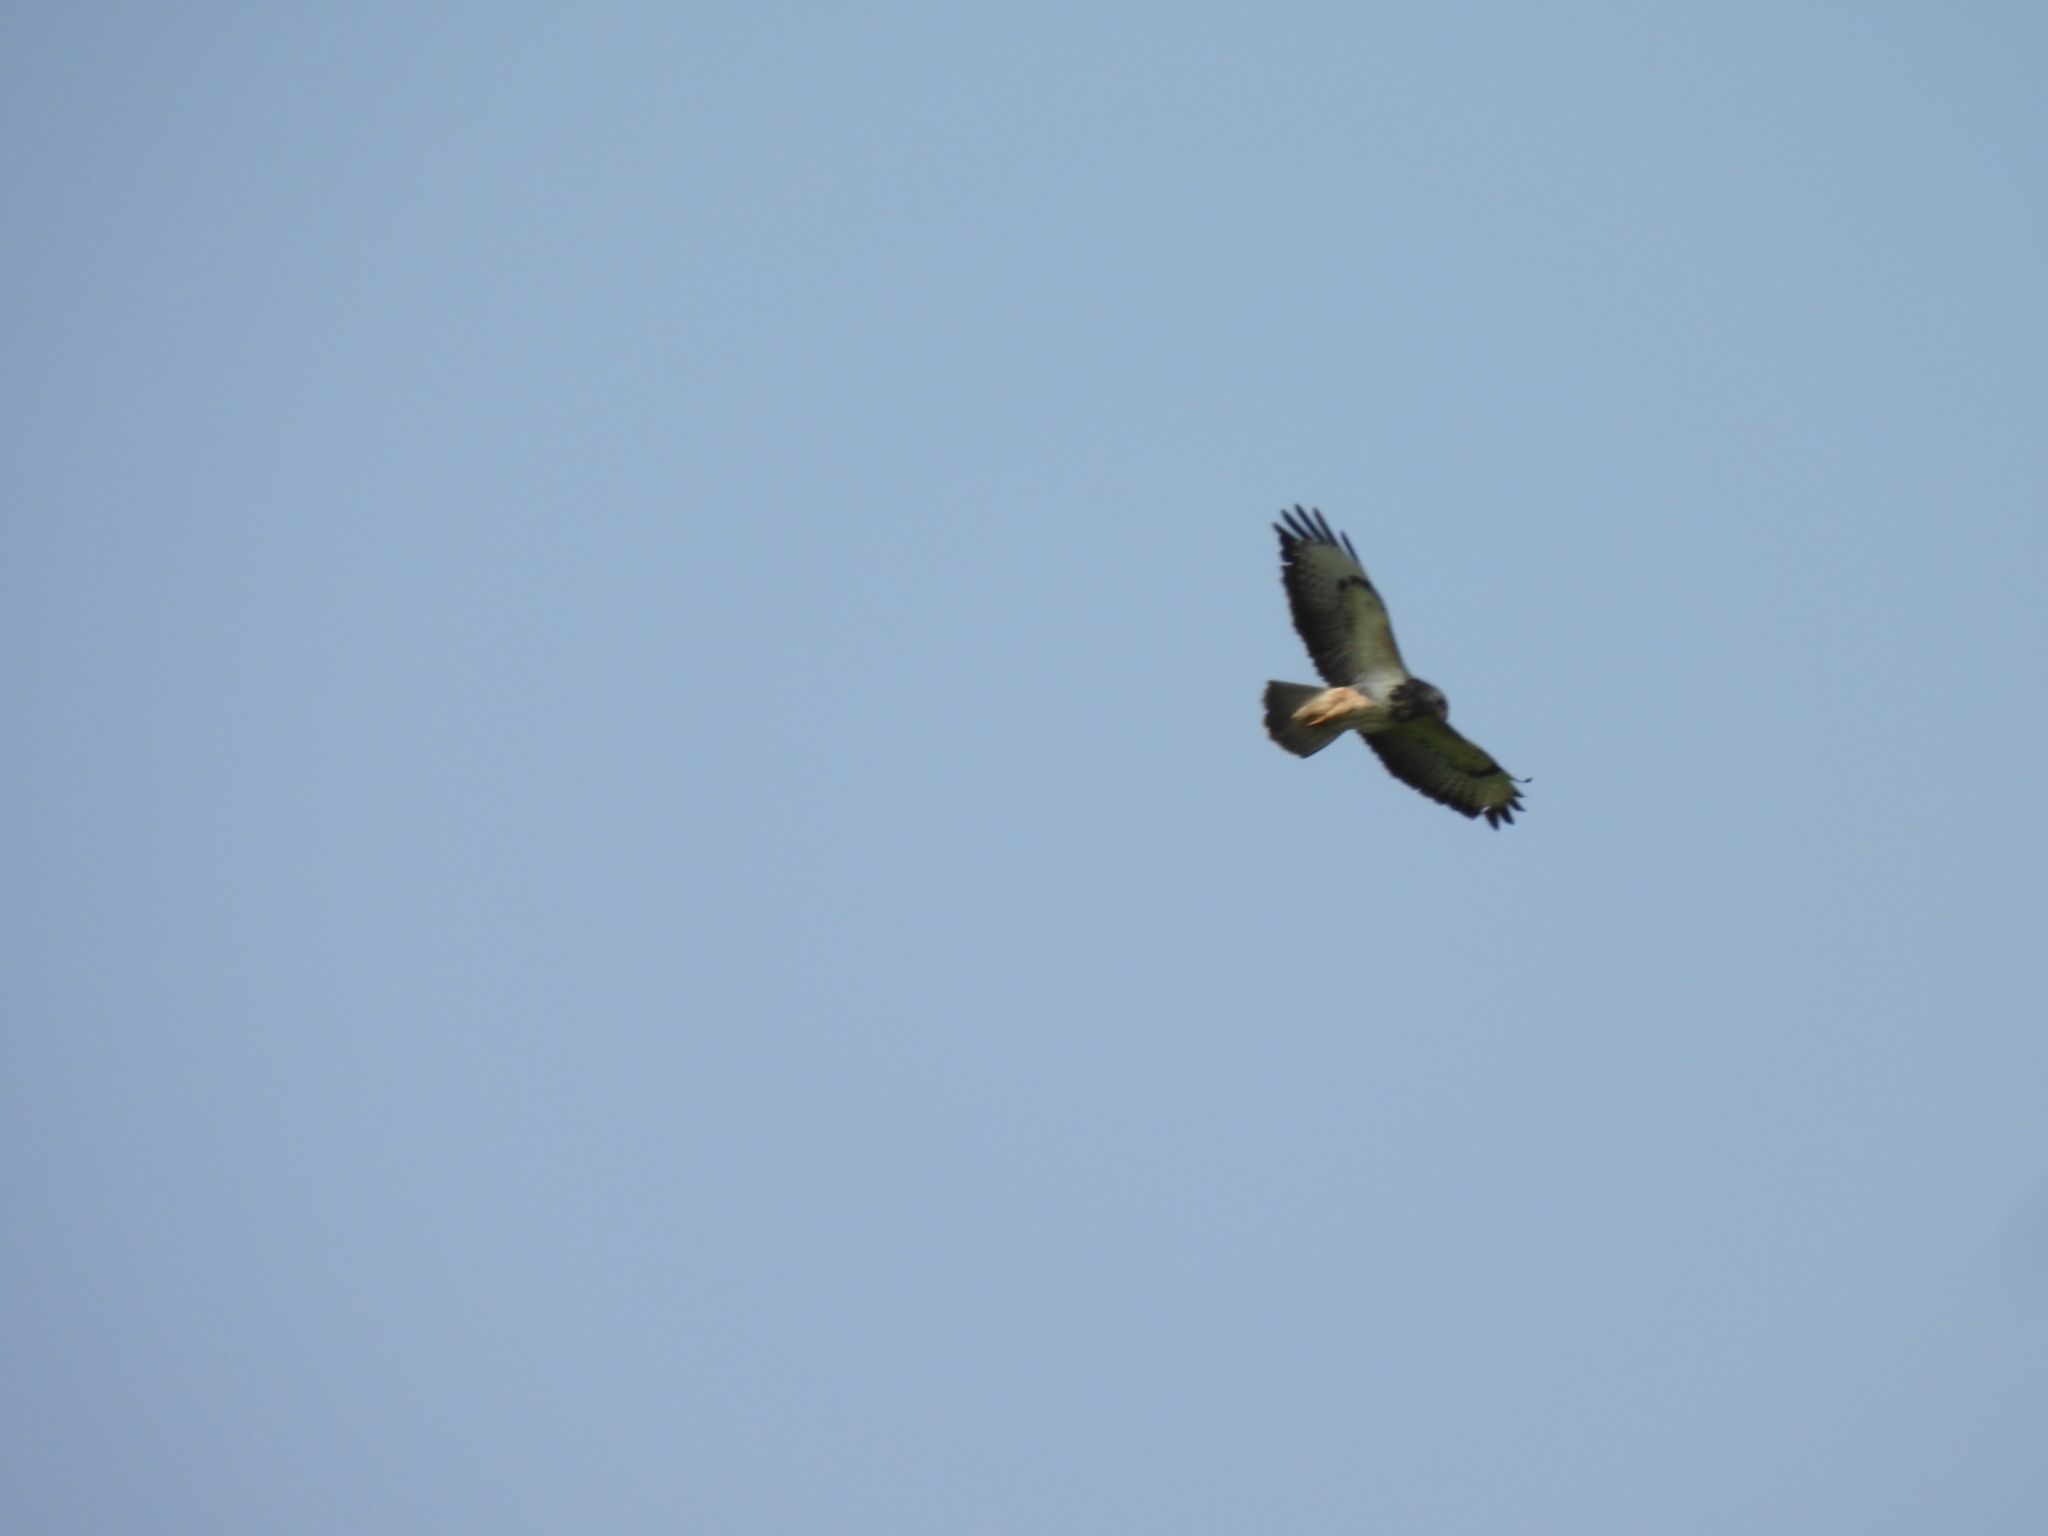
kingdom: Animalia
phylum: Chordata
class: Aves
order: Accipitriformes
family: Accipitridae
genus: Buteo
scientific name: Buteo buteo
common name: Common buzzard
